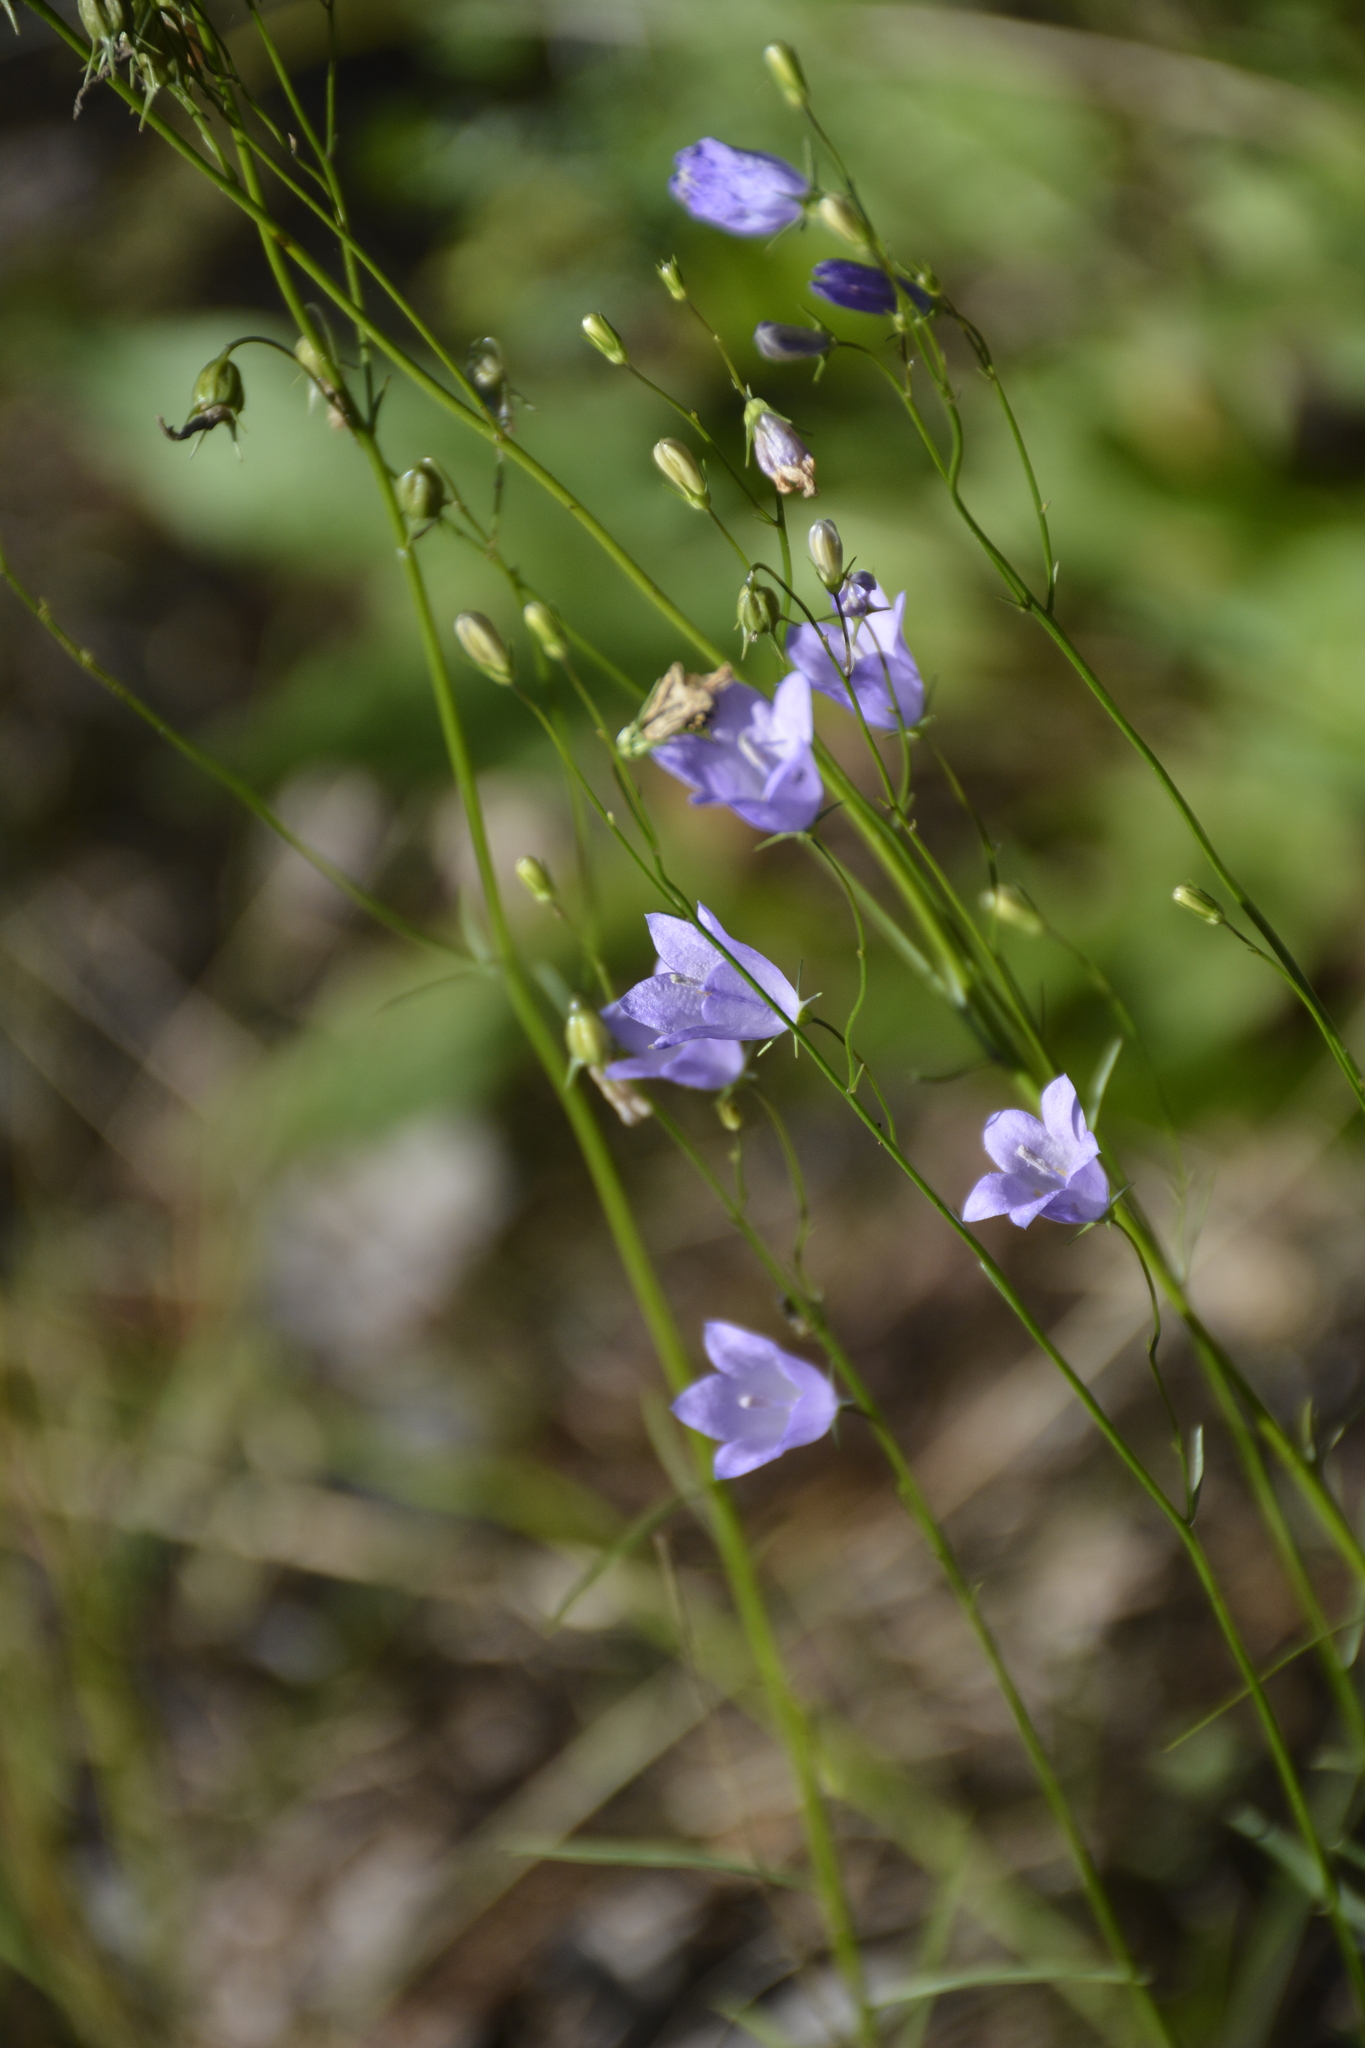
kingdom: Plantae
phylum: Tracheophyta
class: Magnoliopsida
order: Asterales
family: Campanulaceae
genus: Campanula
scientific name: Campanula rotundifolia
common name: Harebell
